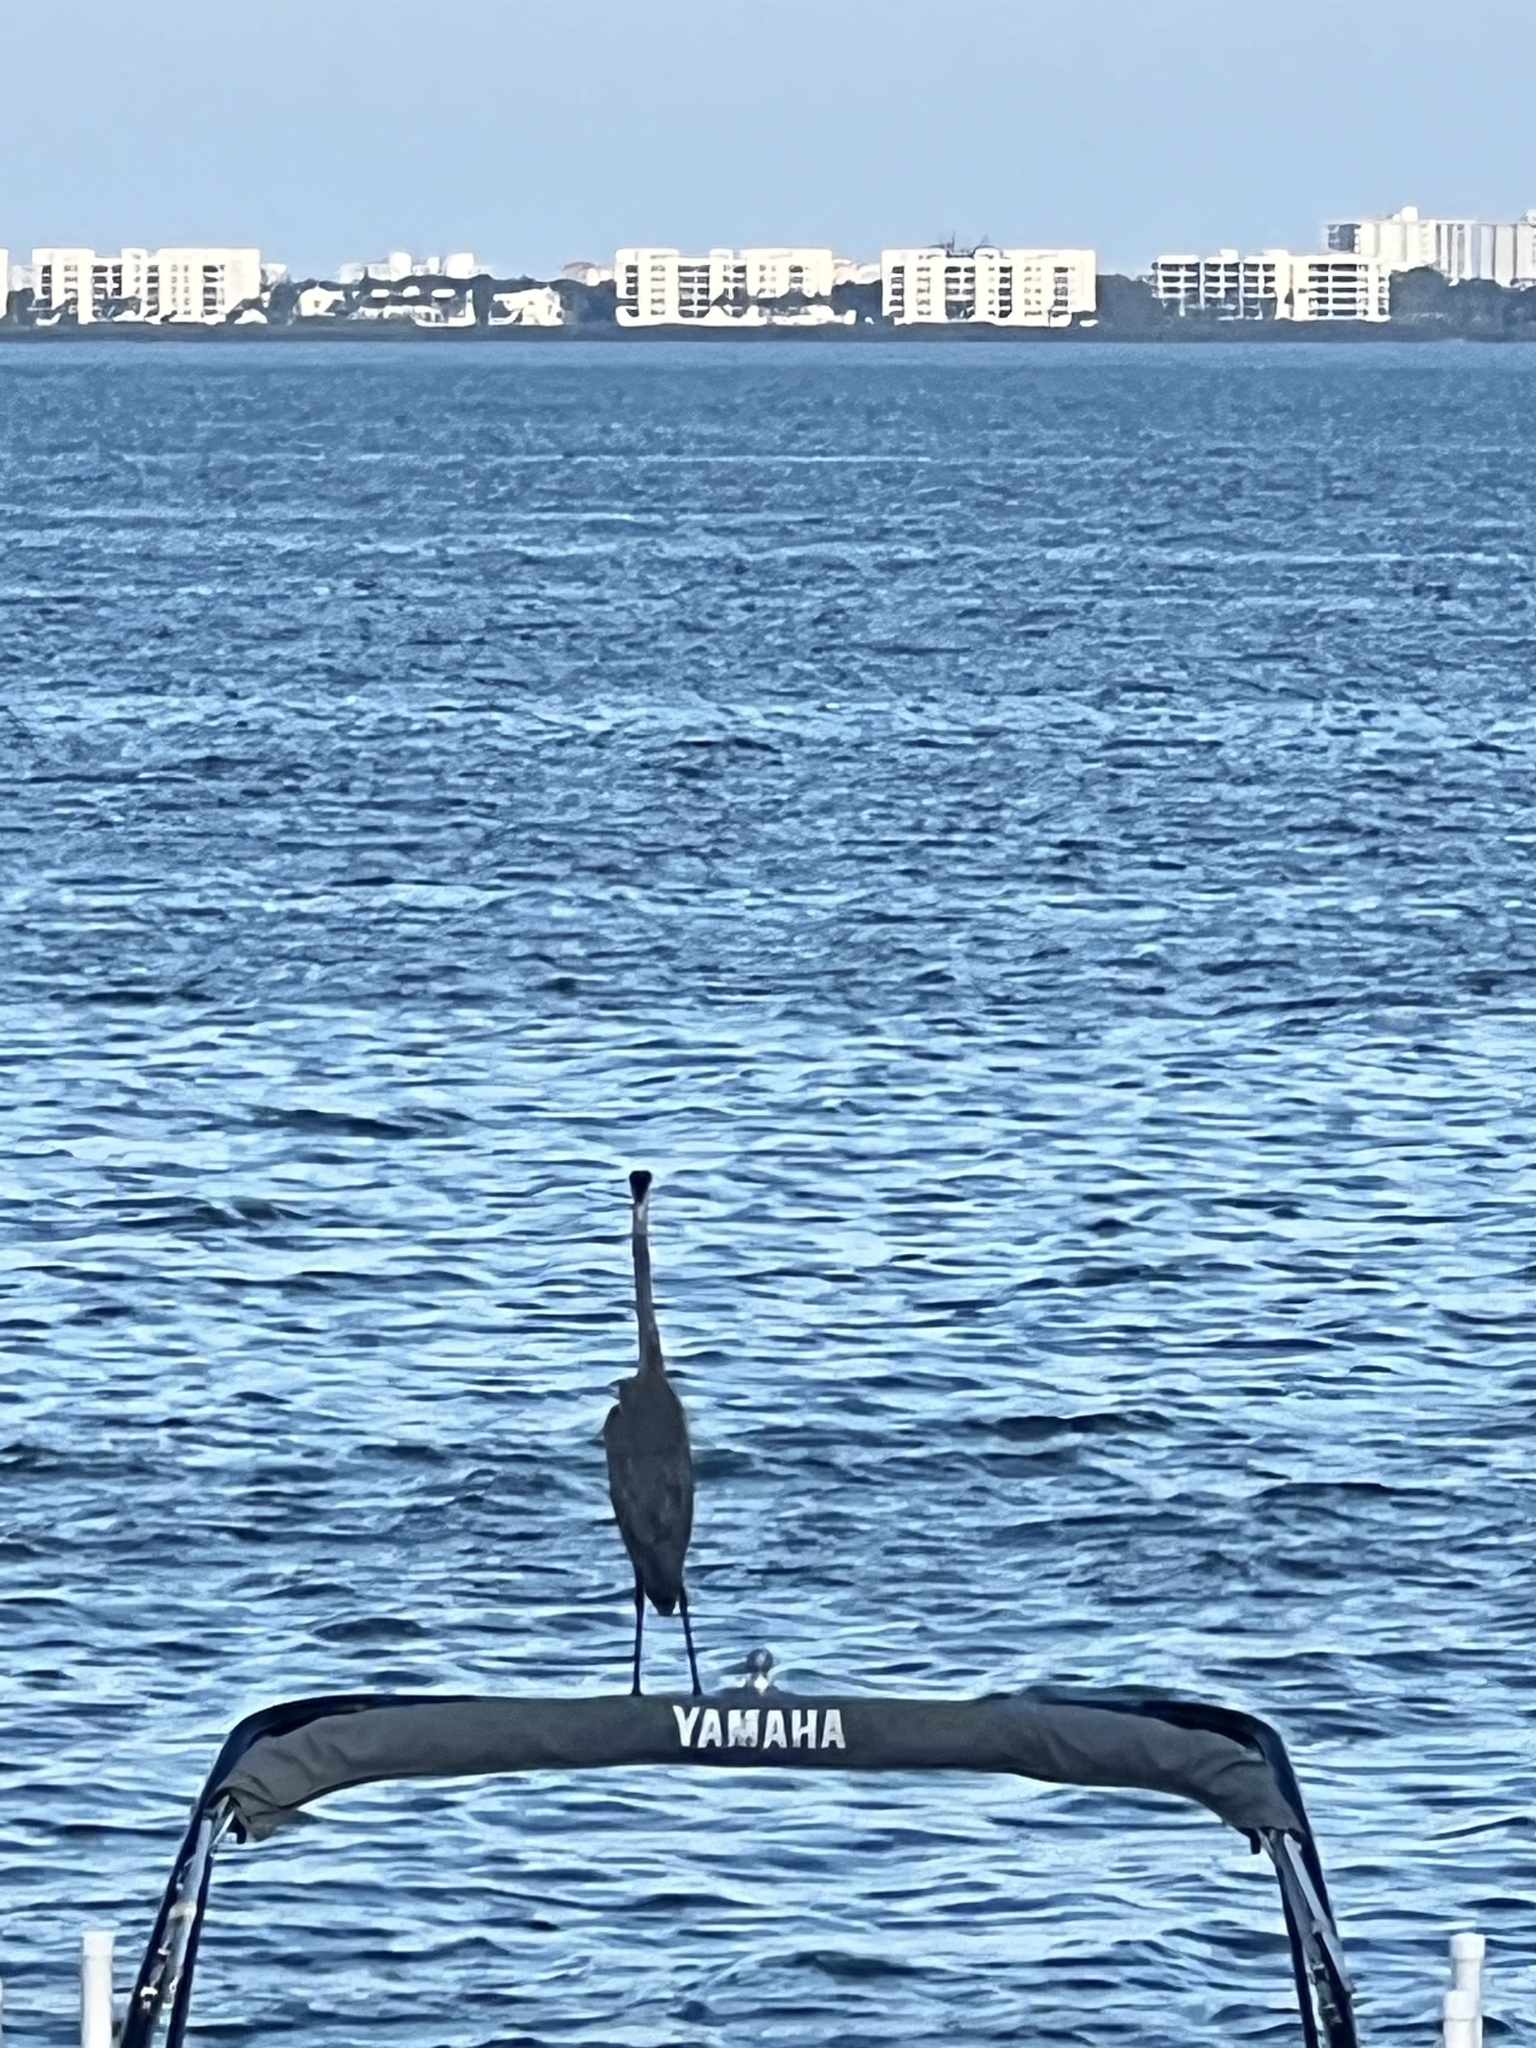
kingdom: Animalia
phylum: Chordata
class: Aves
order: Pelecaniformes
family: Ardeidae
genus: Ardea
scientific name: Ardea herodias
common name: Great blue heron
